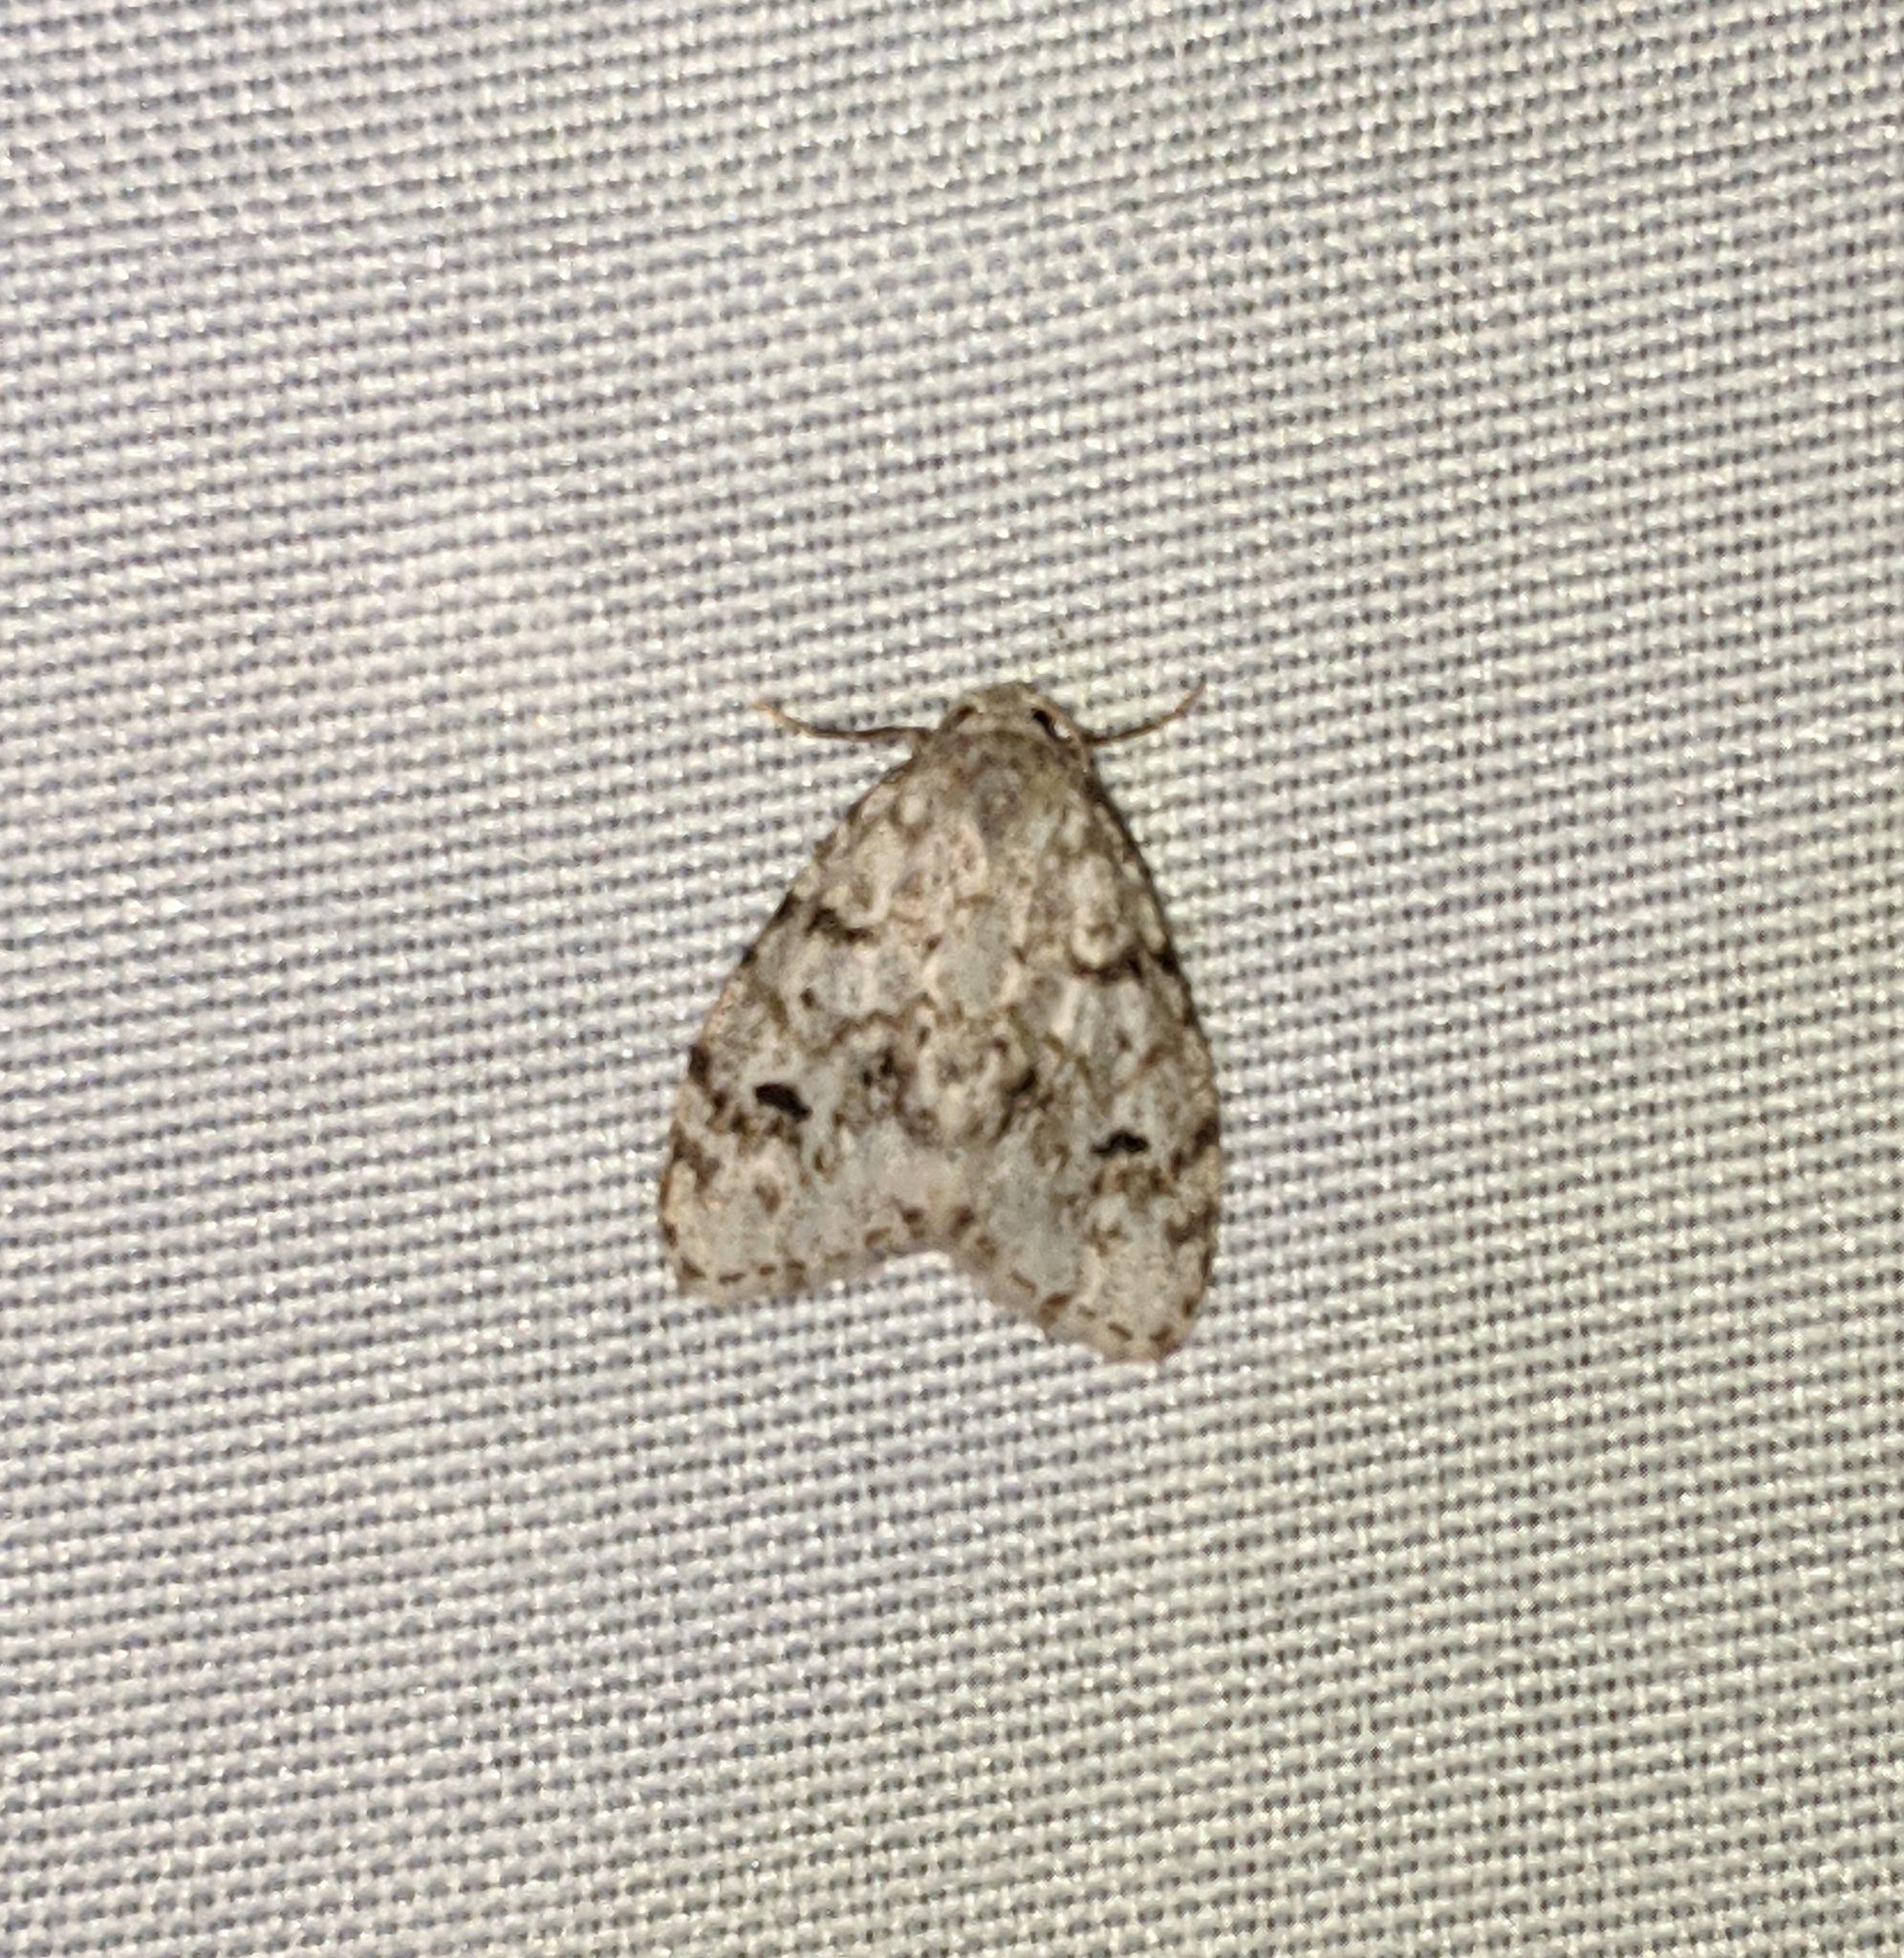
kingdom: Animalia
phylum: Arthropoda
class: Insecta
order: Lepidoptera
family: Erebidae
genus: Clemensia
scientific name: Clemensia umbrata
